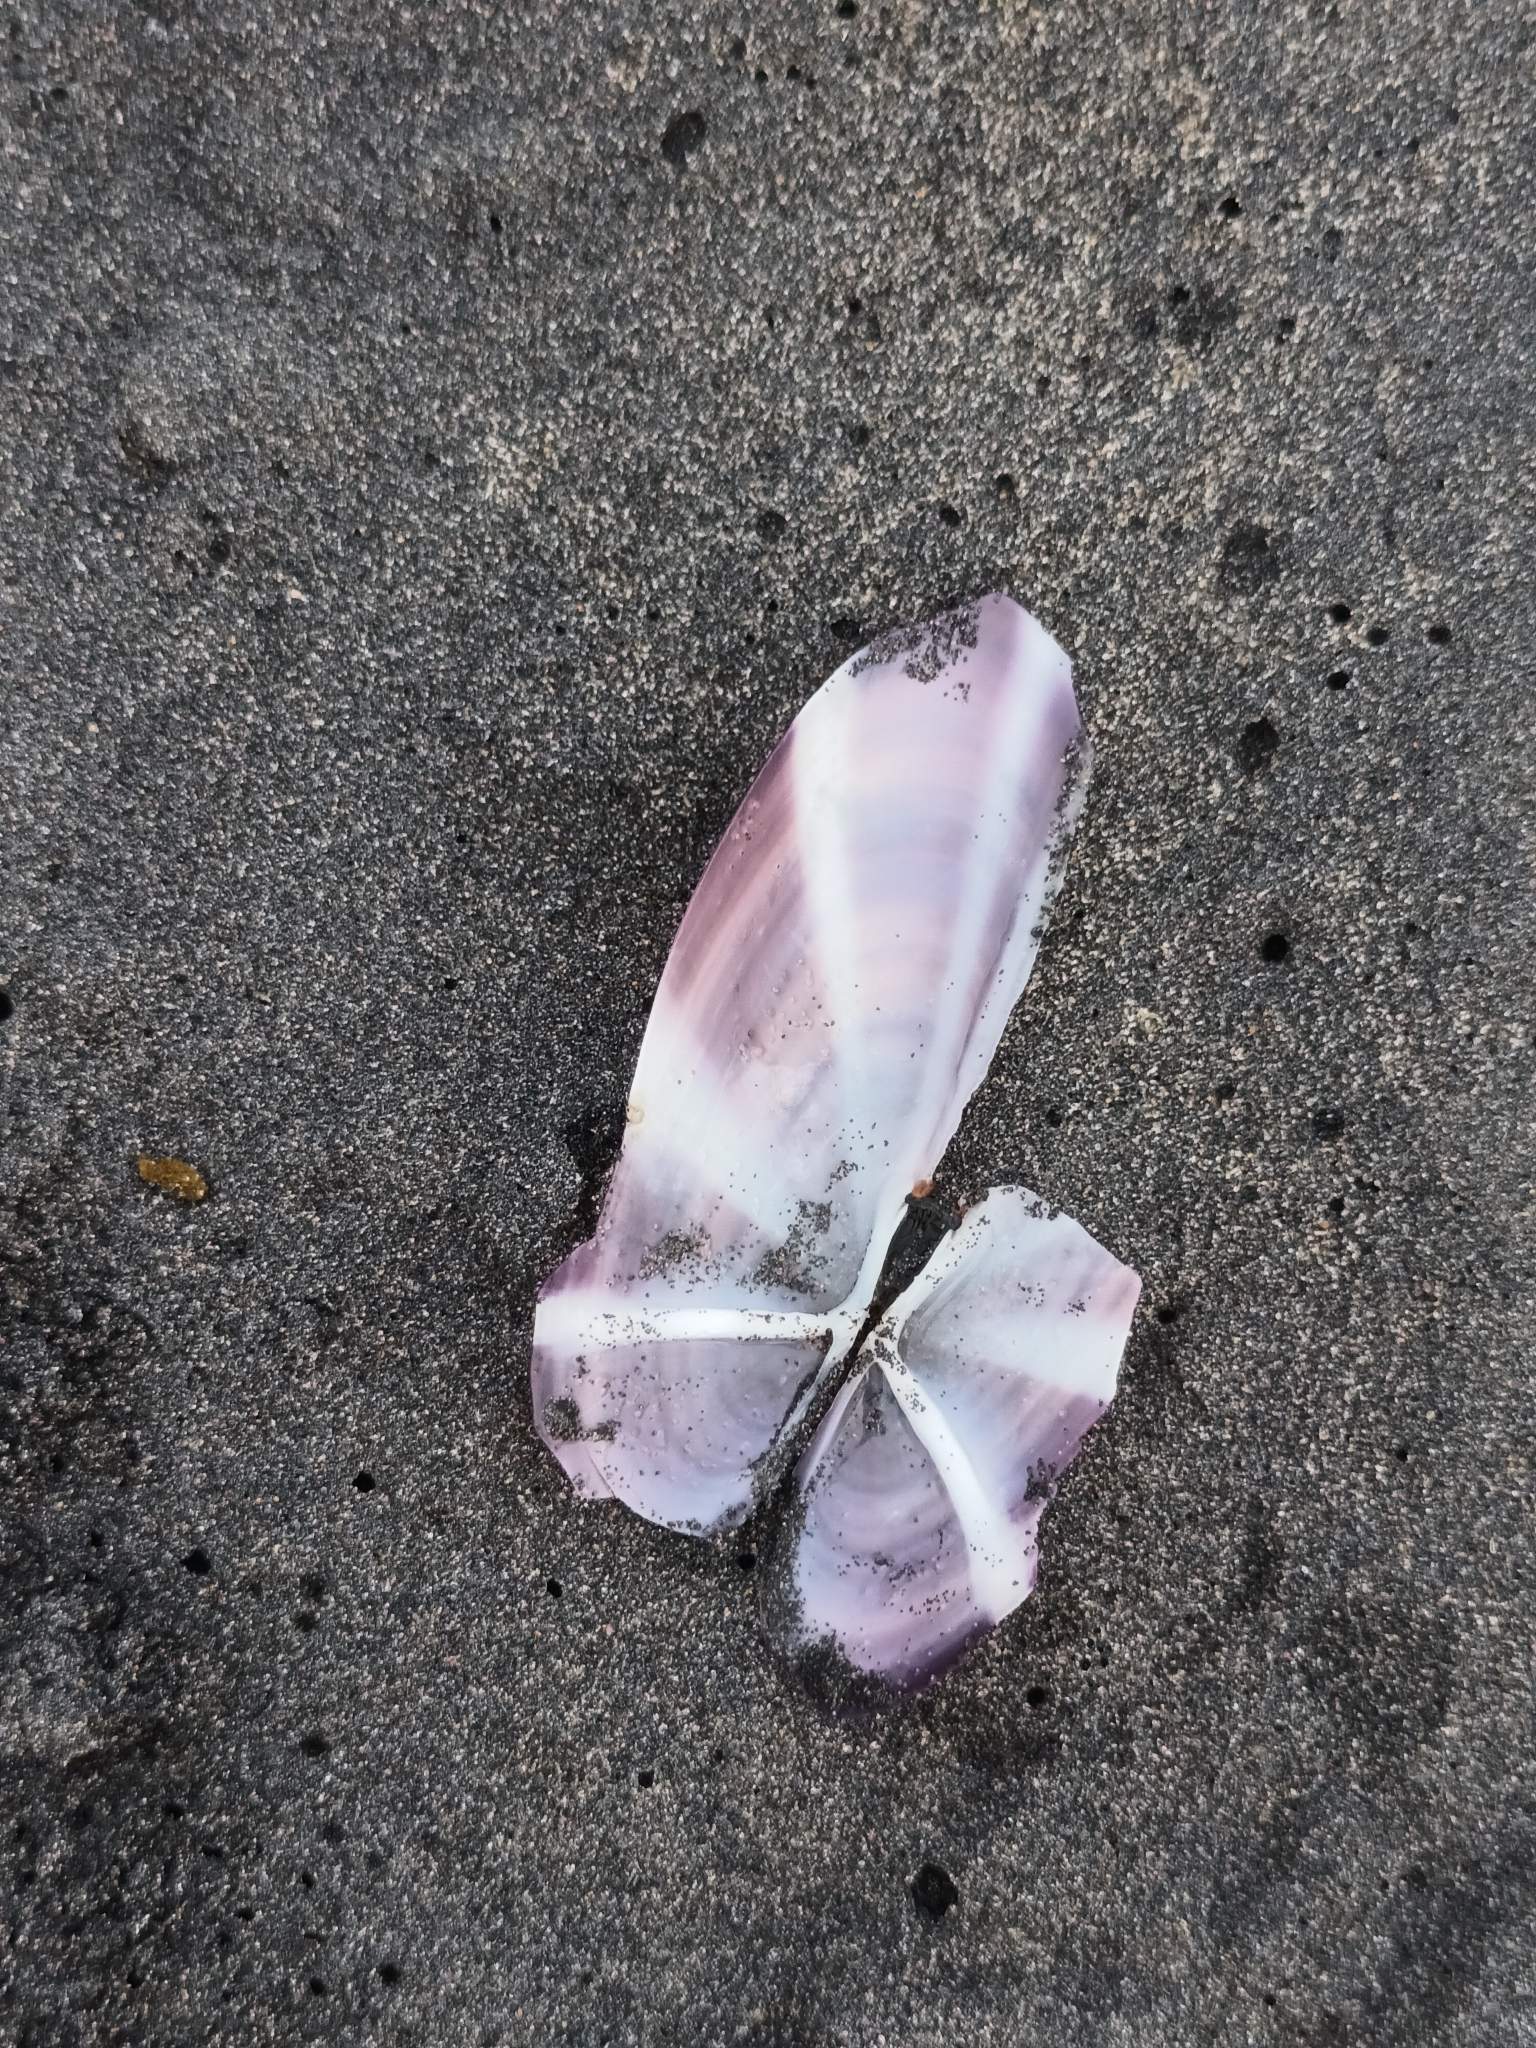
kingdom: Animalia
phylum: Mollusca
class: Bivalvia
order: Adapedonta
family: Pharidae
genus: Siliqua
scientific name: Siliqua radiata
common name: Sunset razor clam
